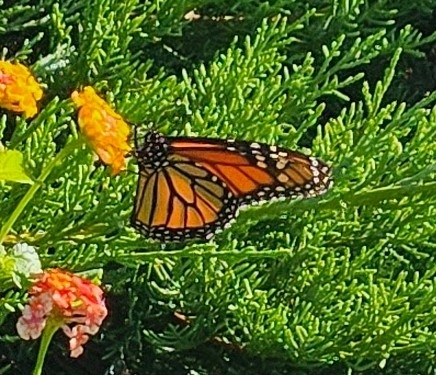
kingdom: Animalia
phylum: Arthropoda
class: Insecta
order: Lepidoptera
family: Nymphalidae
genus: Danaus
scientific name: Danaus plexippus
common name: Monarch
